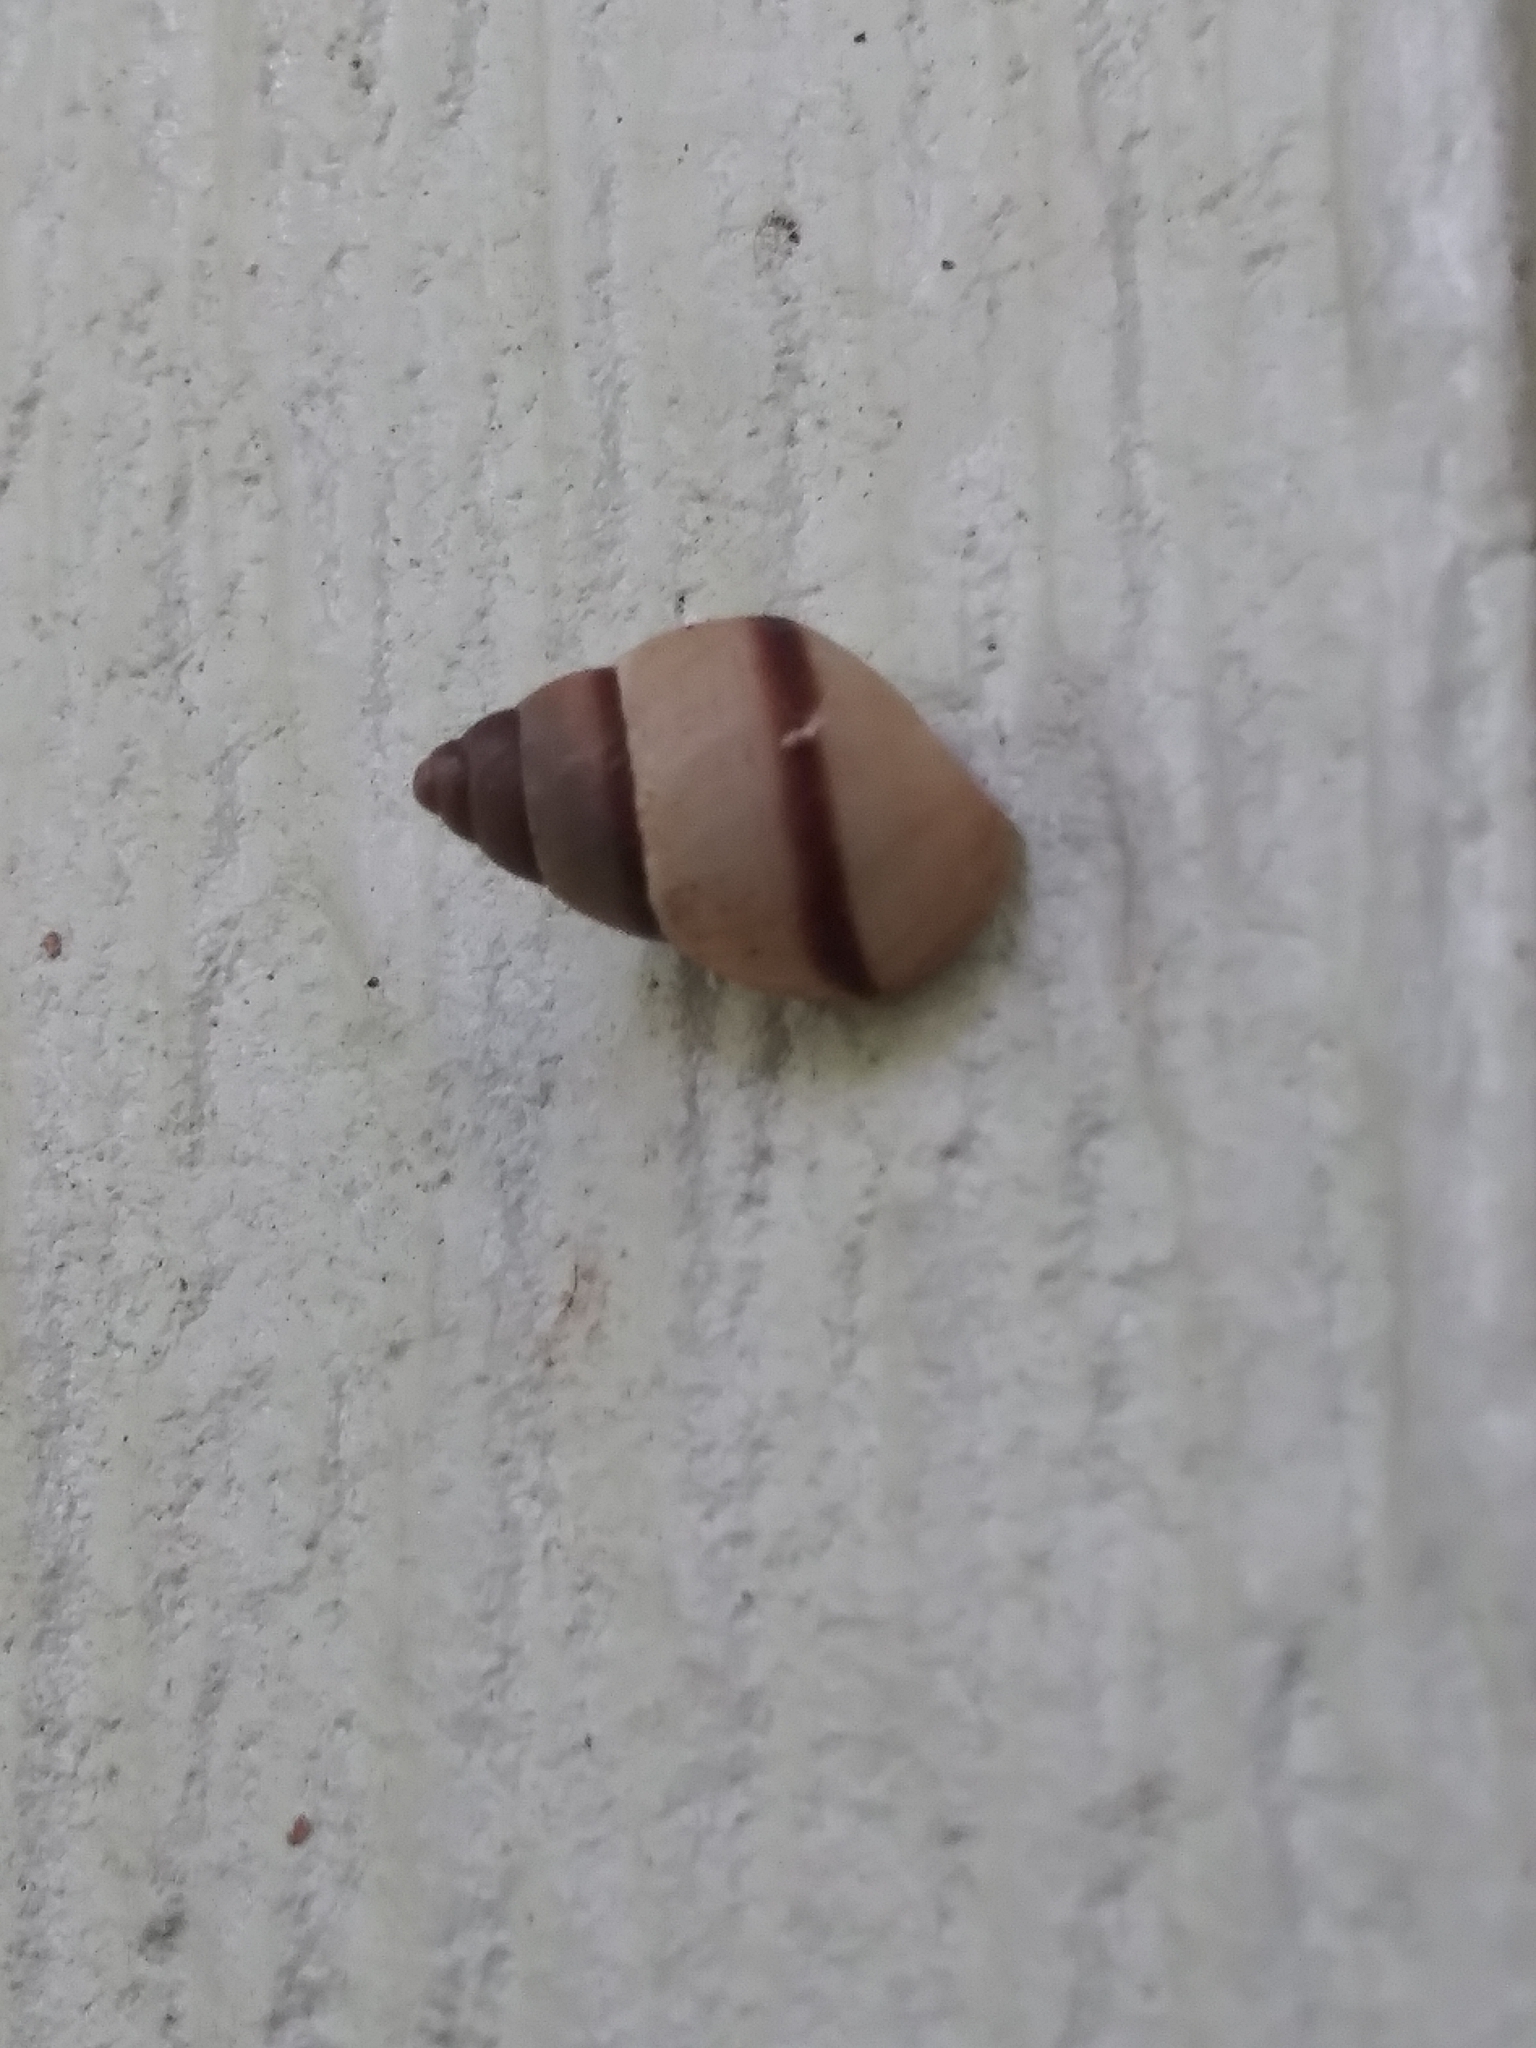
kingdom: Animalia
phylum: Mollusca
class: Gastropoda
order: Stylommatophora
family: Bulimulidae
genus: Bulimulus
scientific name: Bulimulus guadalupensis
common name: West indian bulimulus
